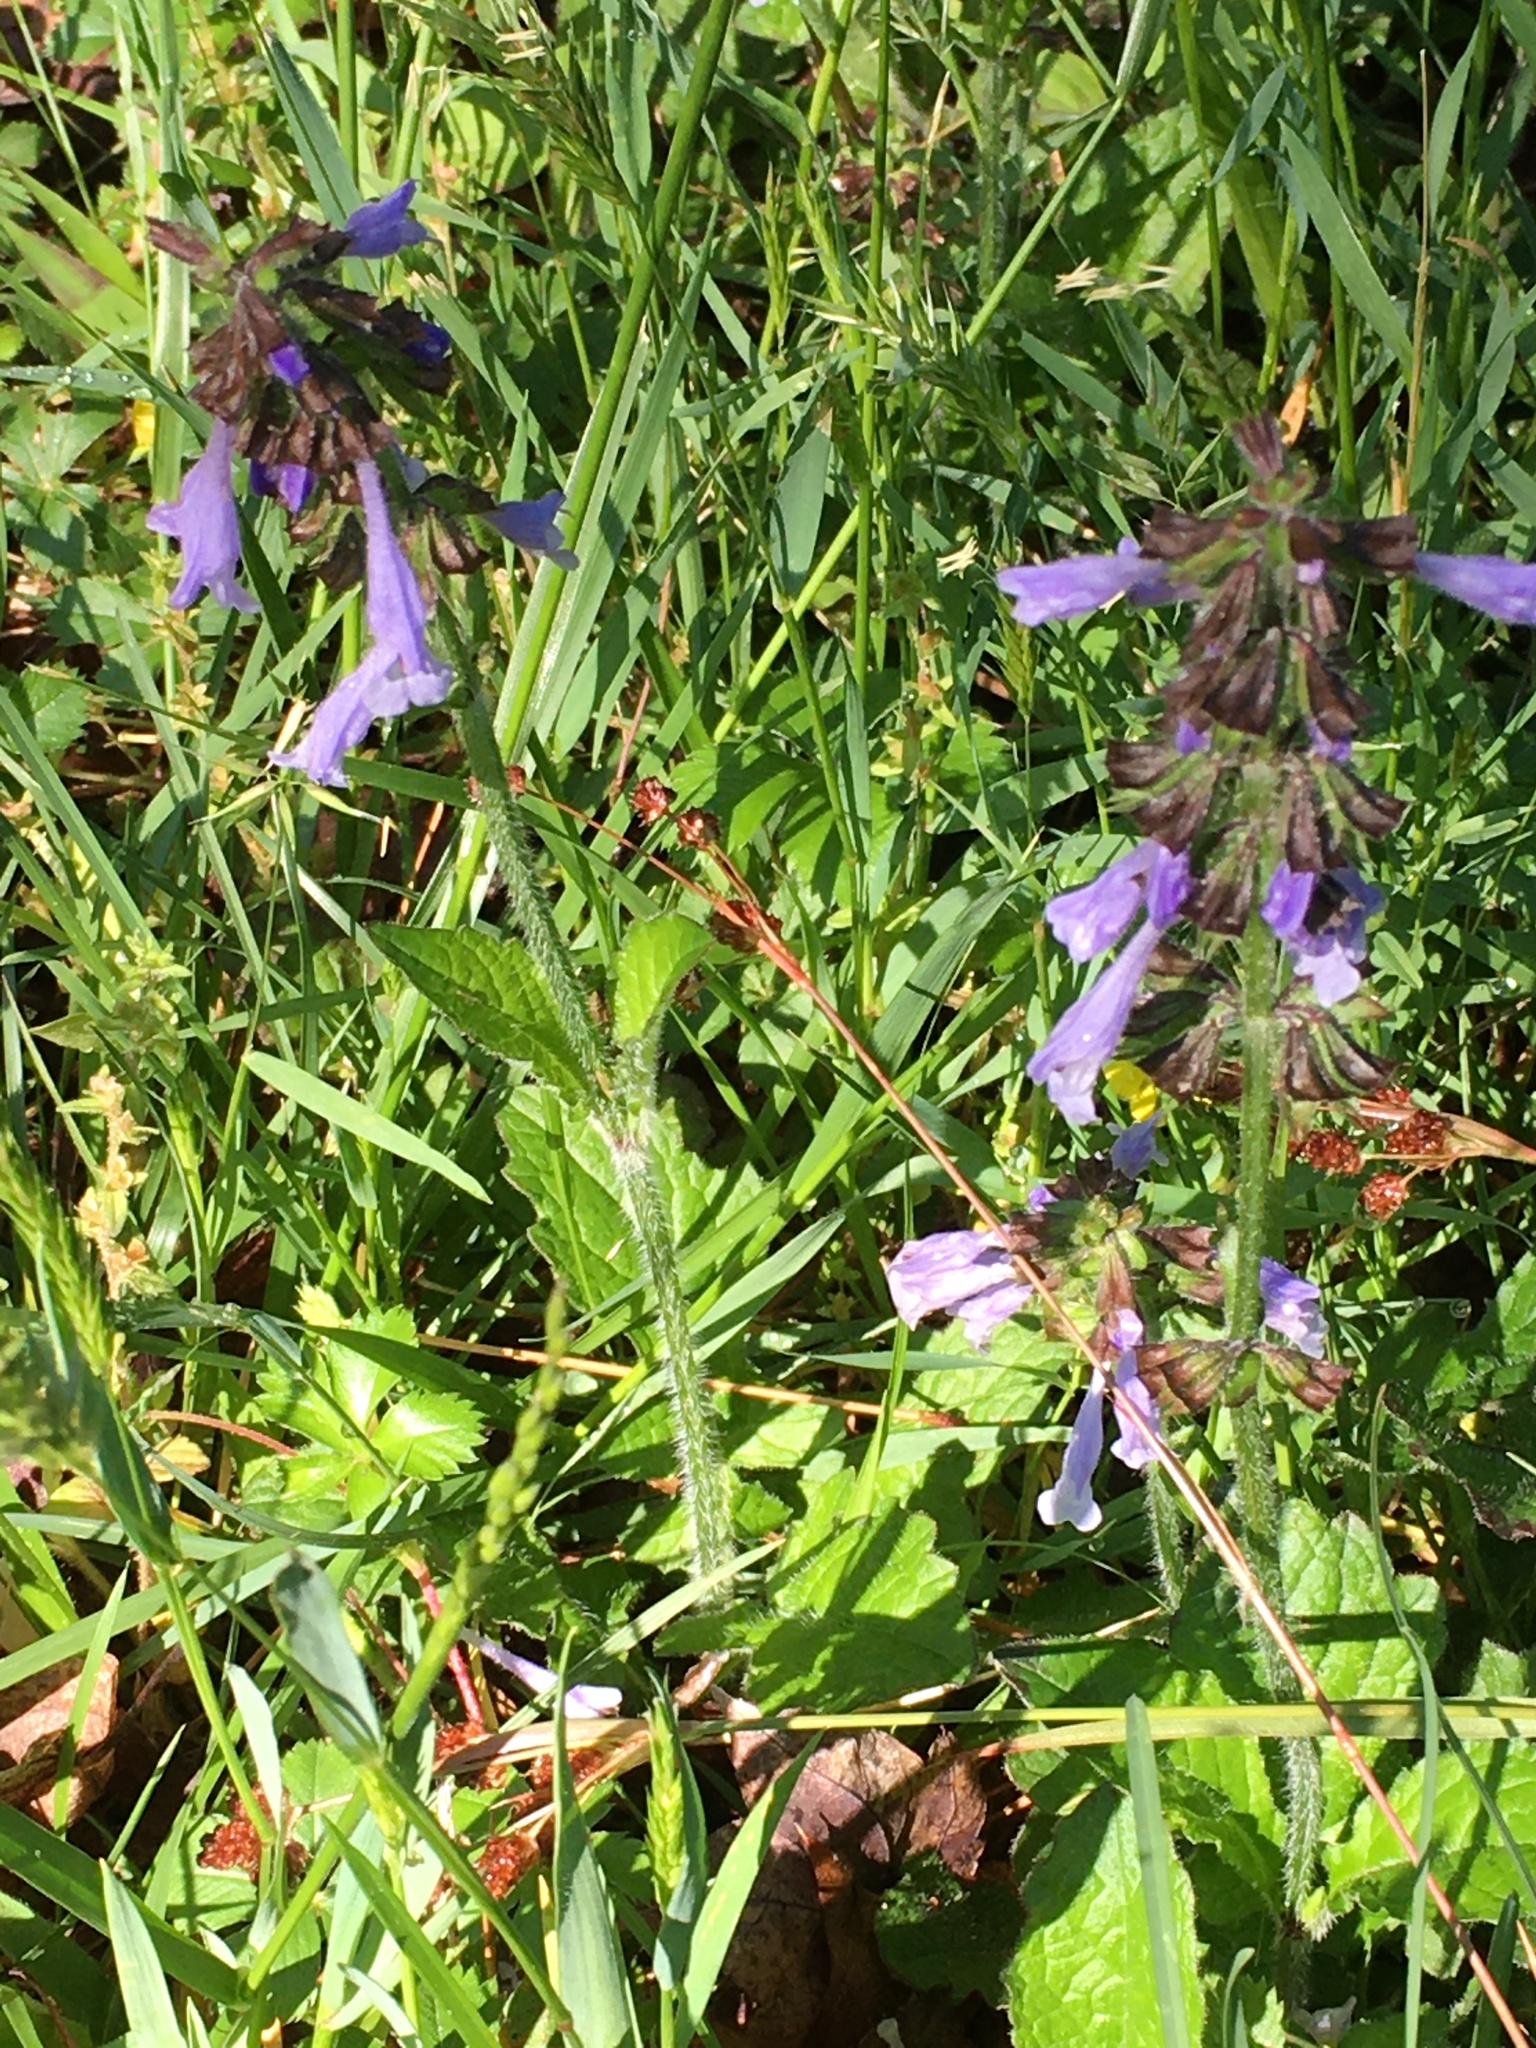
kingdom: Plantae
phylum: Tracheophyta
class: Magnoliopsida
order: Lamiales
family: Lamiaceae
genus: Salvia
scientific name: Salvia lyrata
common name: Cancerweed
